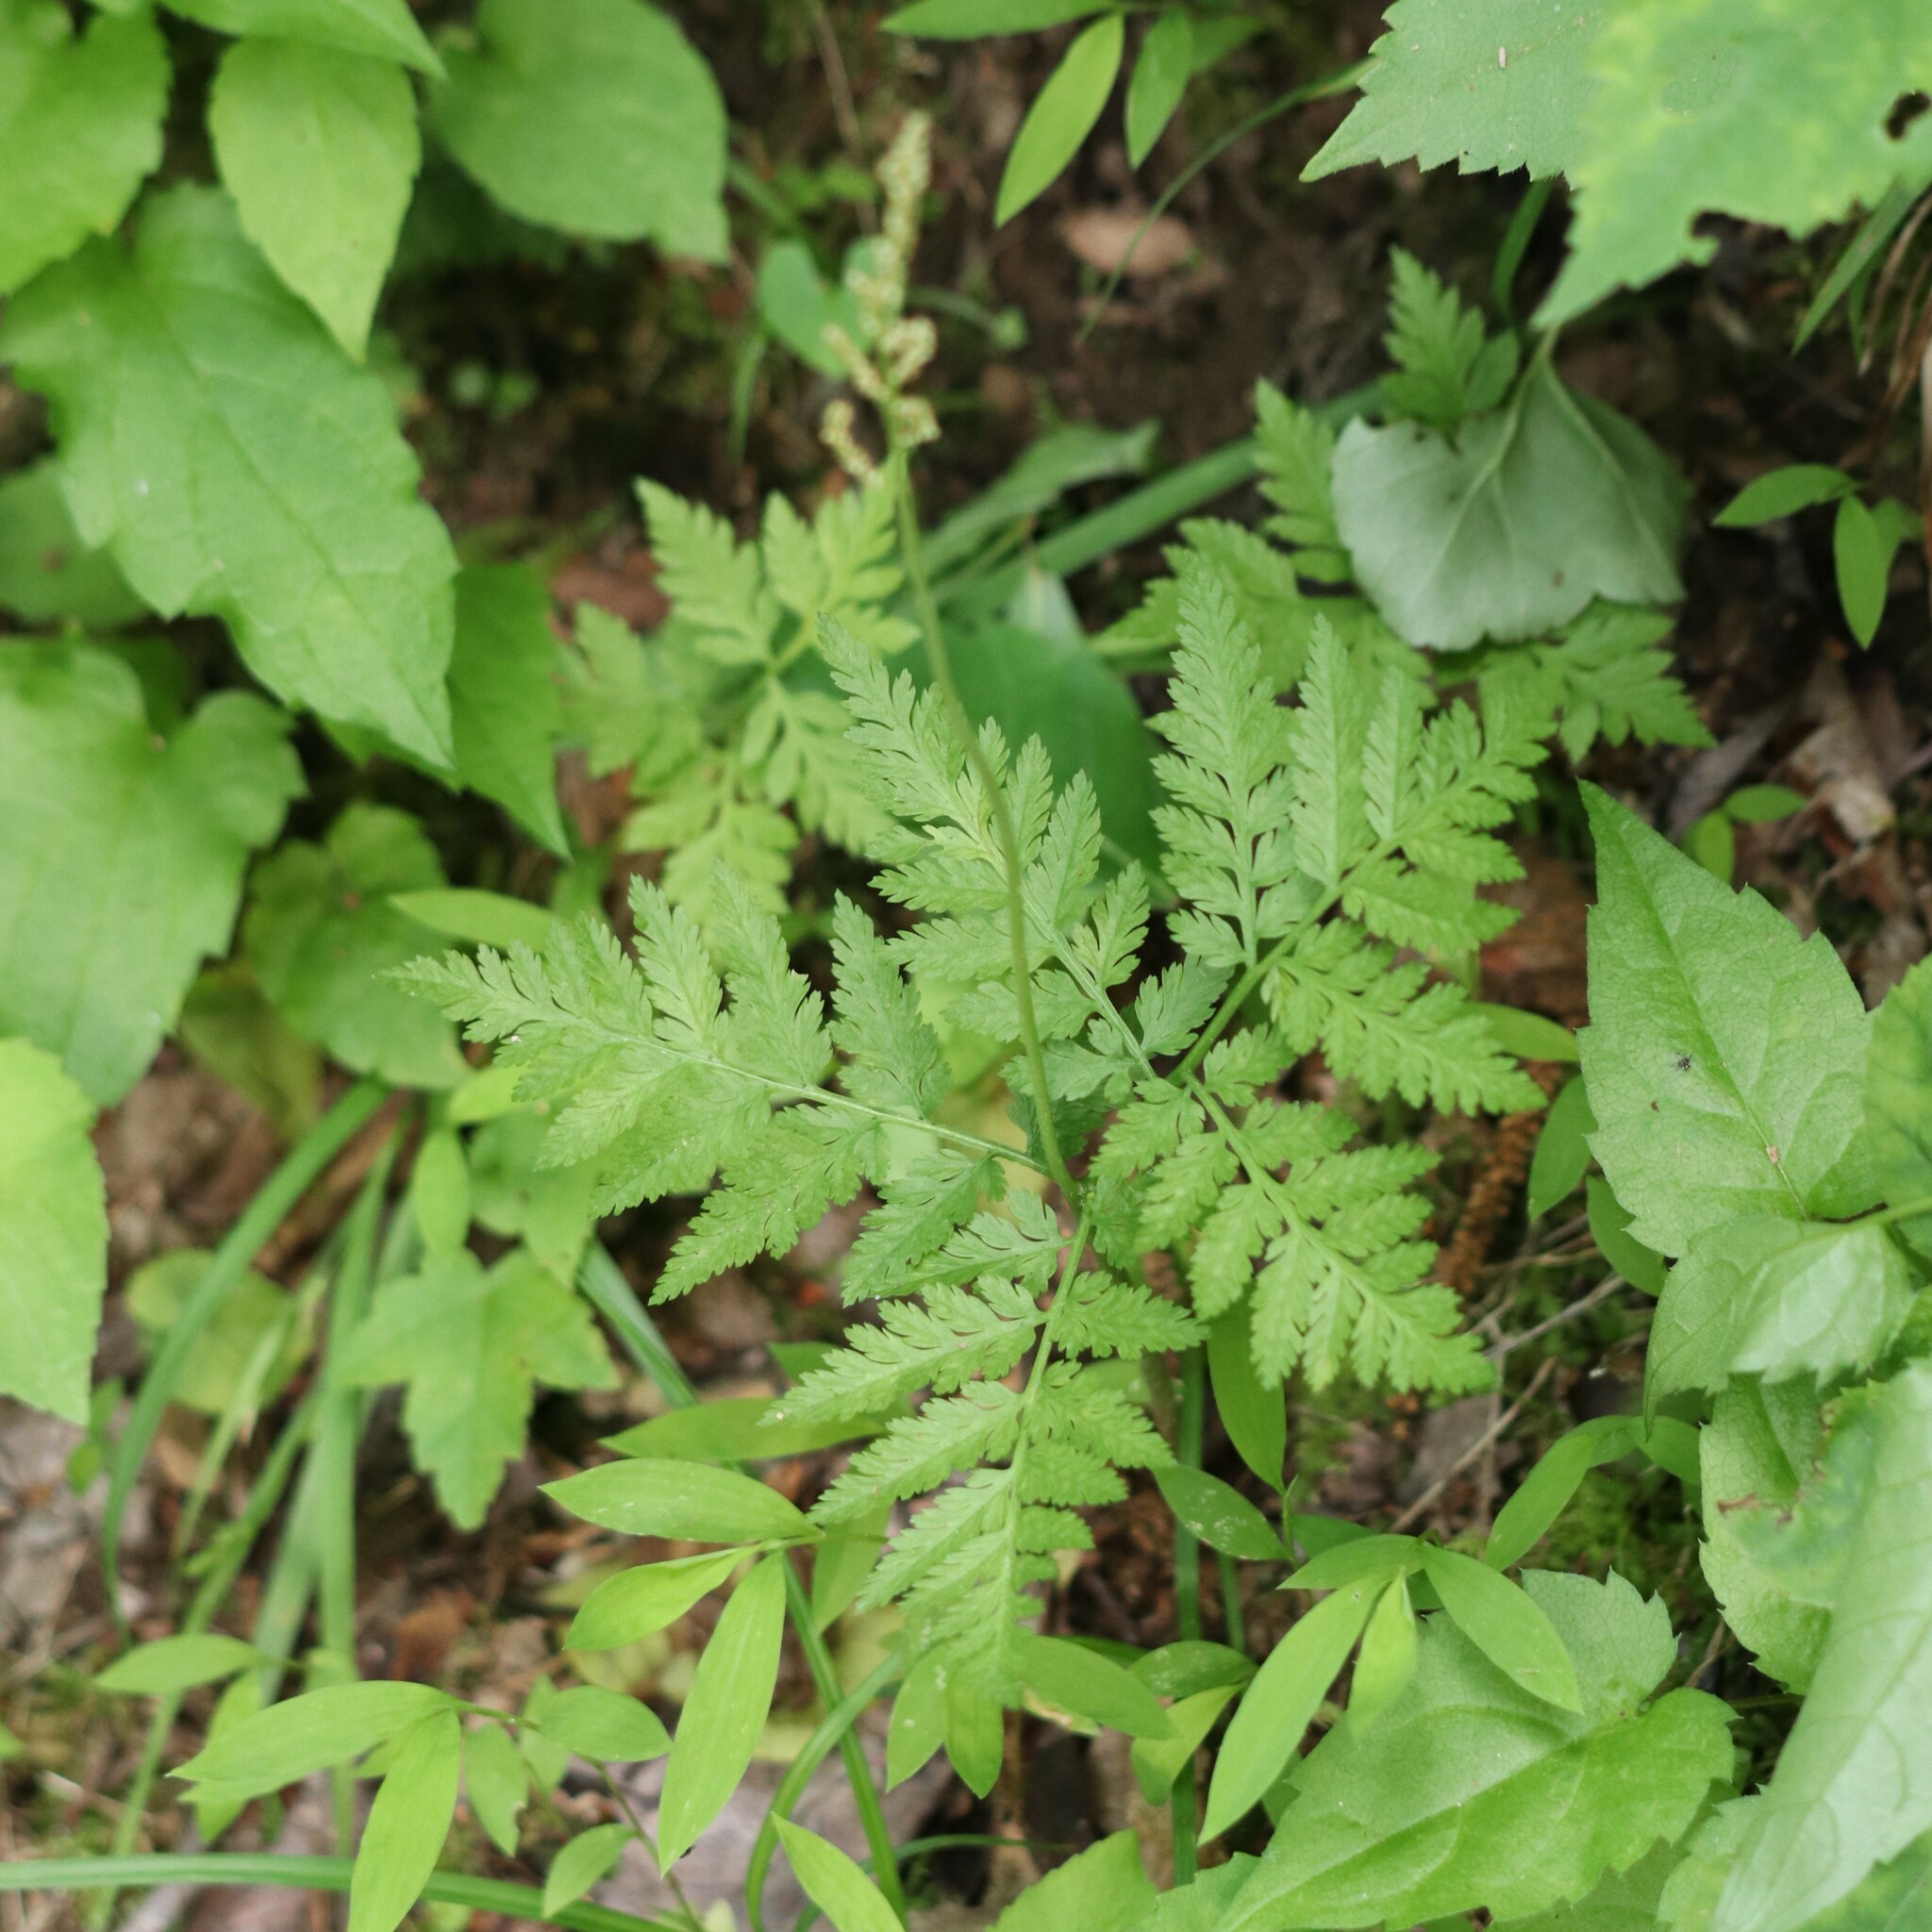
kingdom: Plantae
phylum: Tracheophyta
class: Polypodiopsida
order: Ophioglossales
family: Ophioglossaceae
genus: Botrypus
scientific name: Botrypus virginianus
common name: Common grapefern
